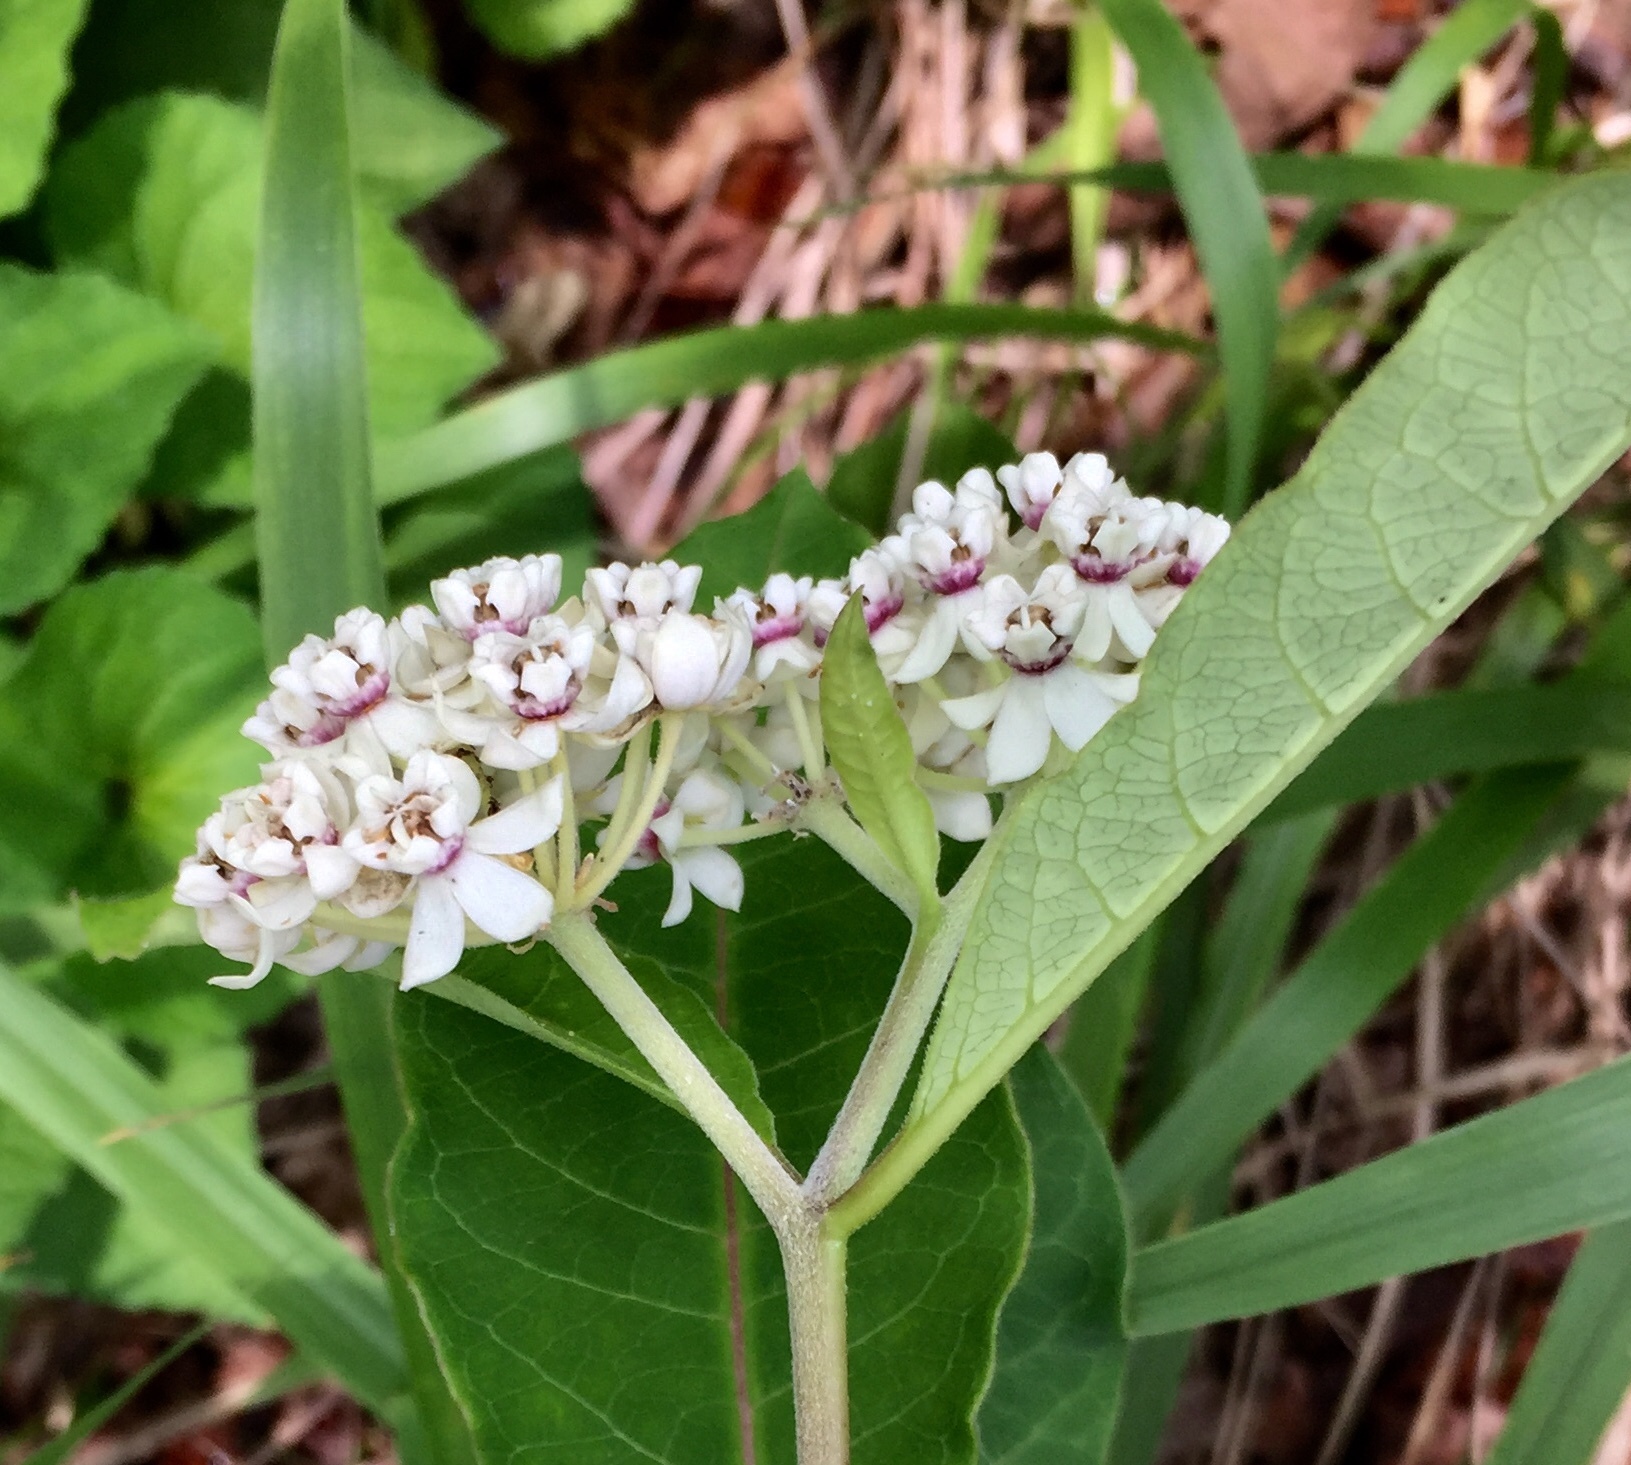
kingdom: Plantae
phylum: Tracheophyta
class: Magnoliopsida
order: Gentianales
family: Apocynaceae
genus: Asclepias
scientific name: Asclepias variegata
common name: Variegated milkweed
